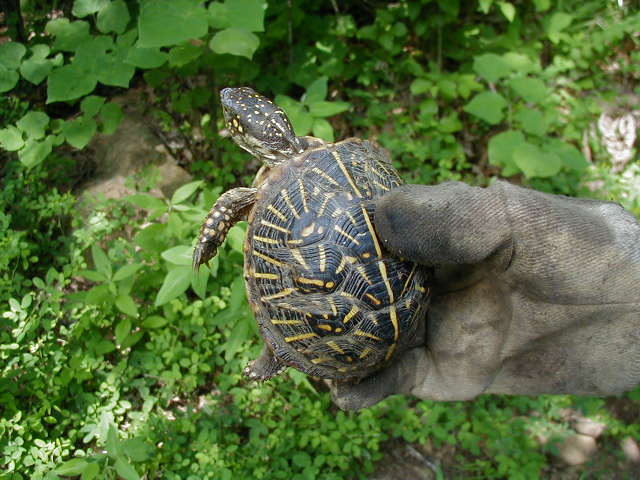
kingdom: Animalia
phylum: Chordata
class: Testudines
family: Emydidae
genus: Terrapene
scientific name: Terrapene ornata
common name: Western box turtle
